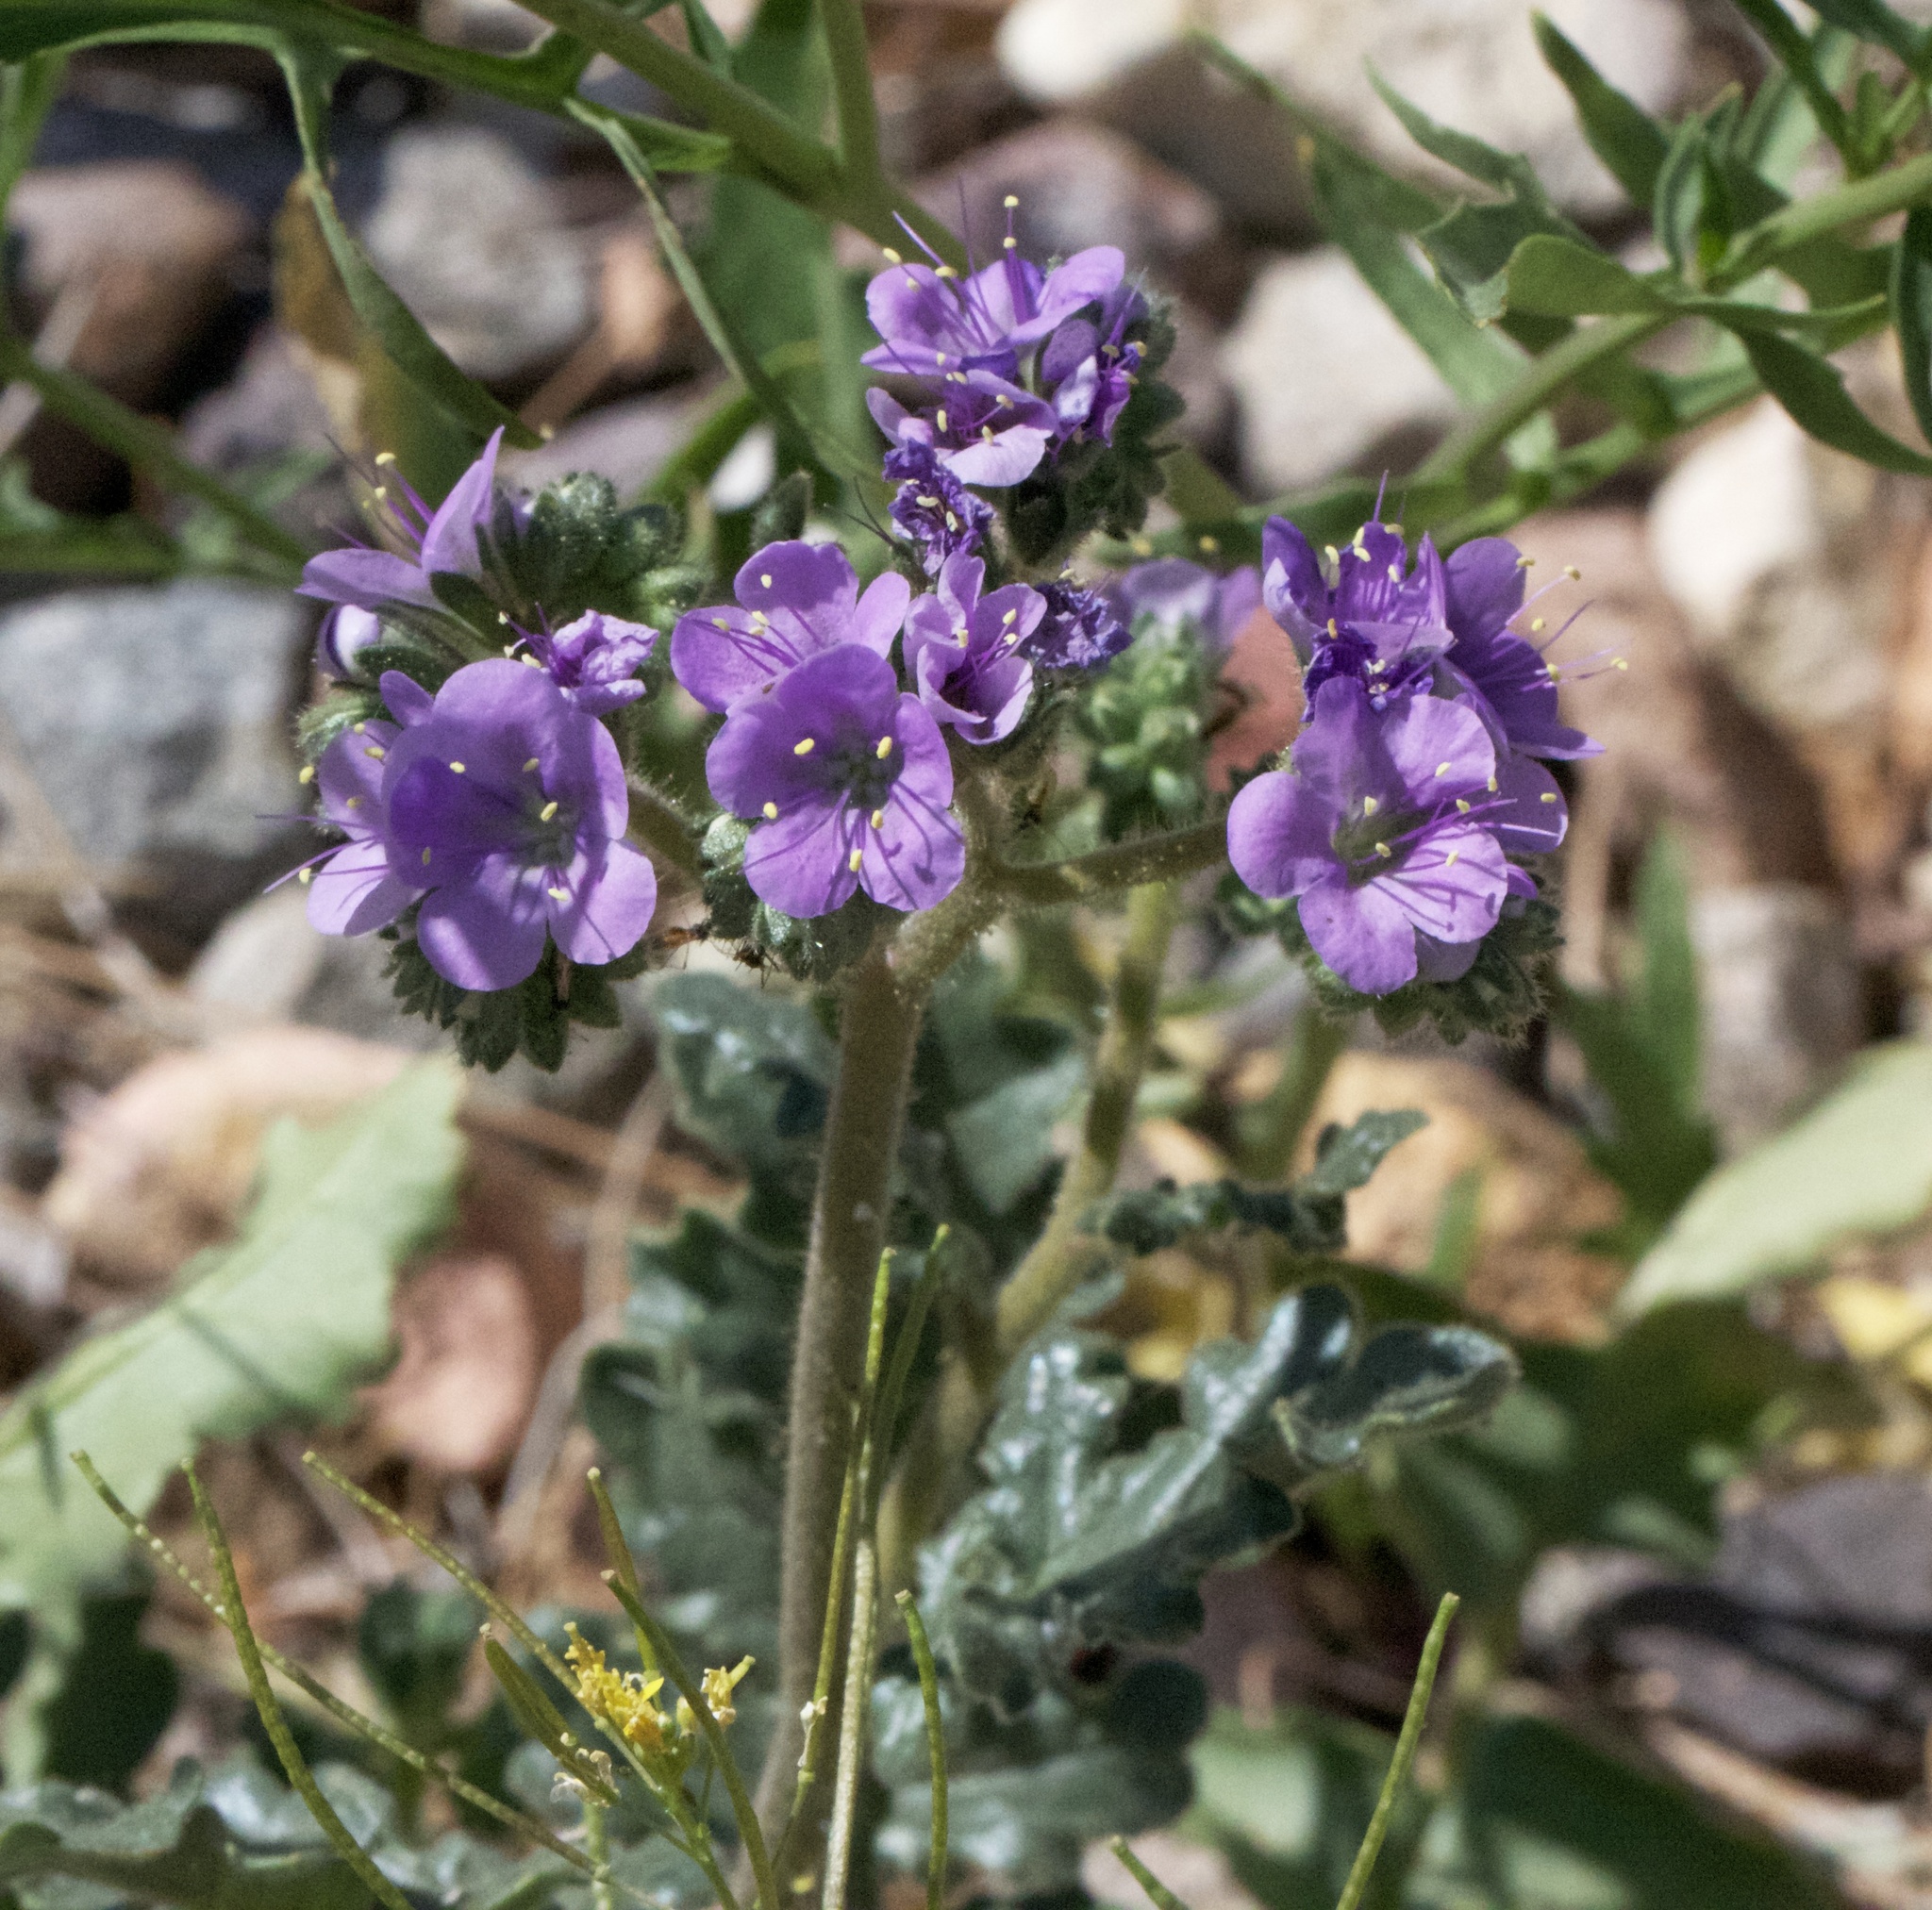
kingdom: Plantae
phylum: Tracheophyta
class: Magnoliopsida
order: Boraginales
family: Hydrophyllaceae
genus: Phacelia
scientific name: Phacelia crenulata
